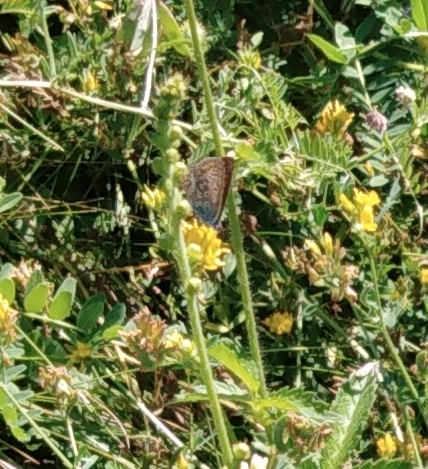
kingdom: Animalia
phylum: Arthropoda
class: Insecta
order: Lepidoptera
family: Lycaenidae
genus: Polyommatus
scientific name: Polyommatus icarus
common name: Common blue
